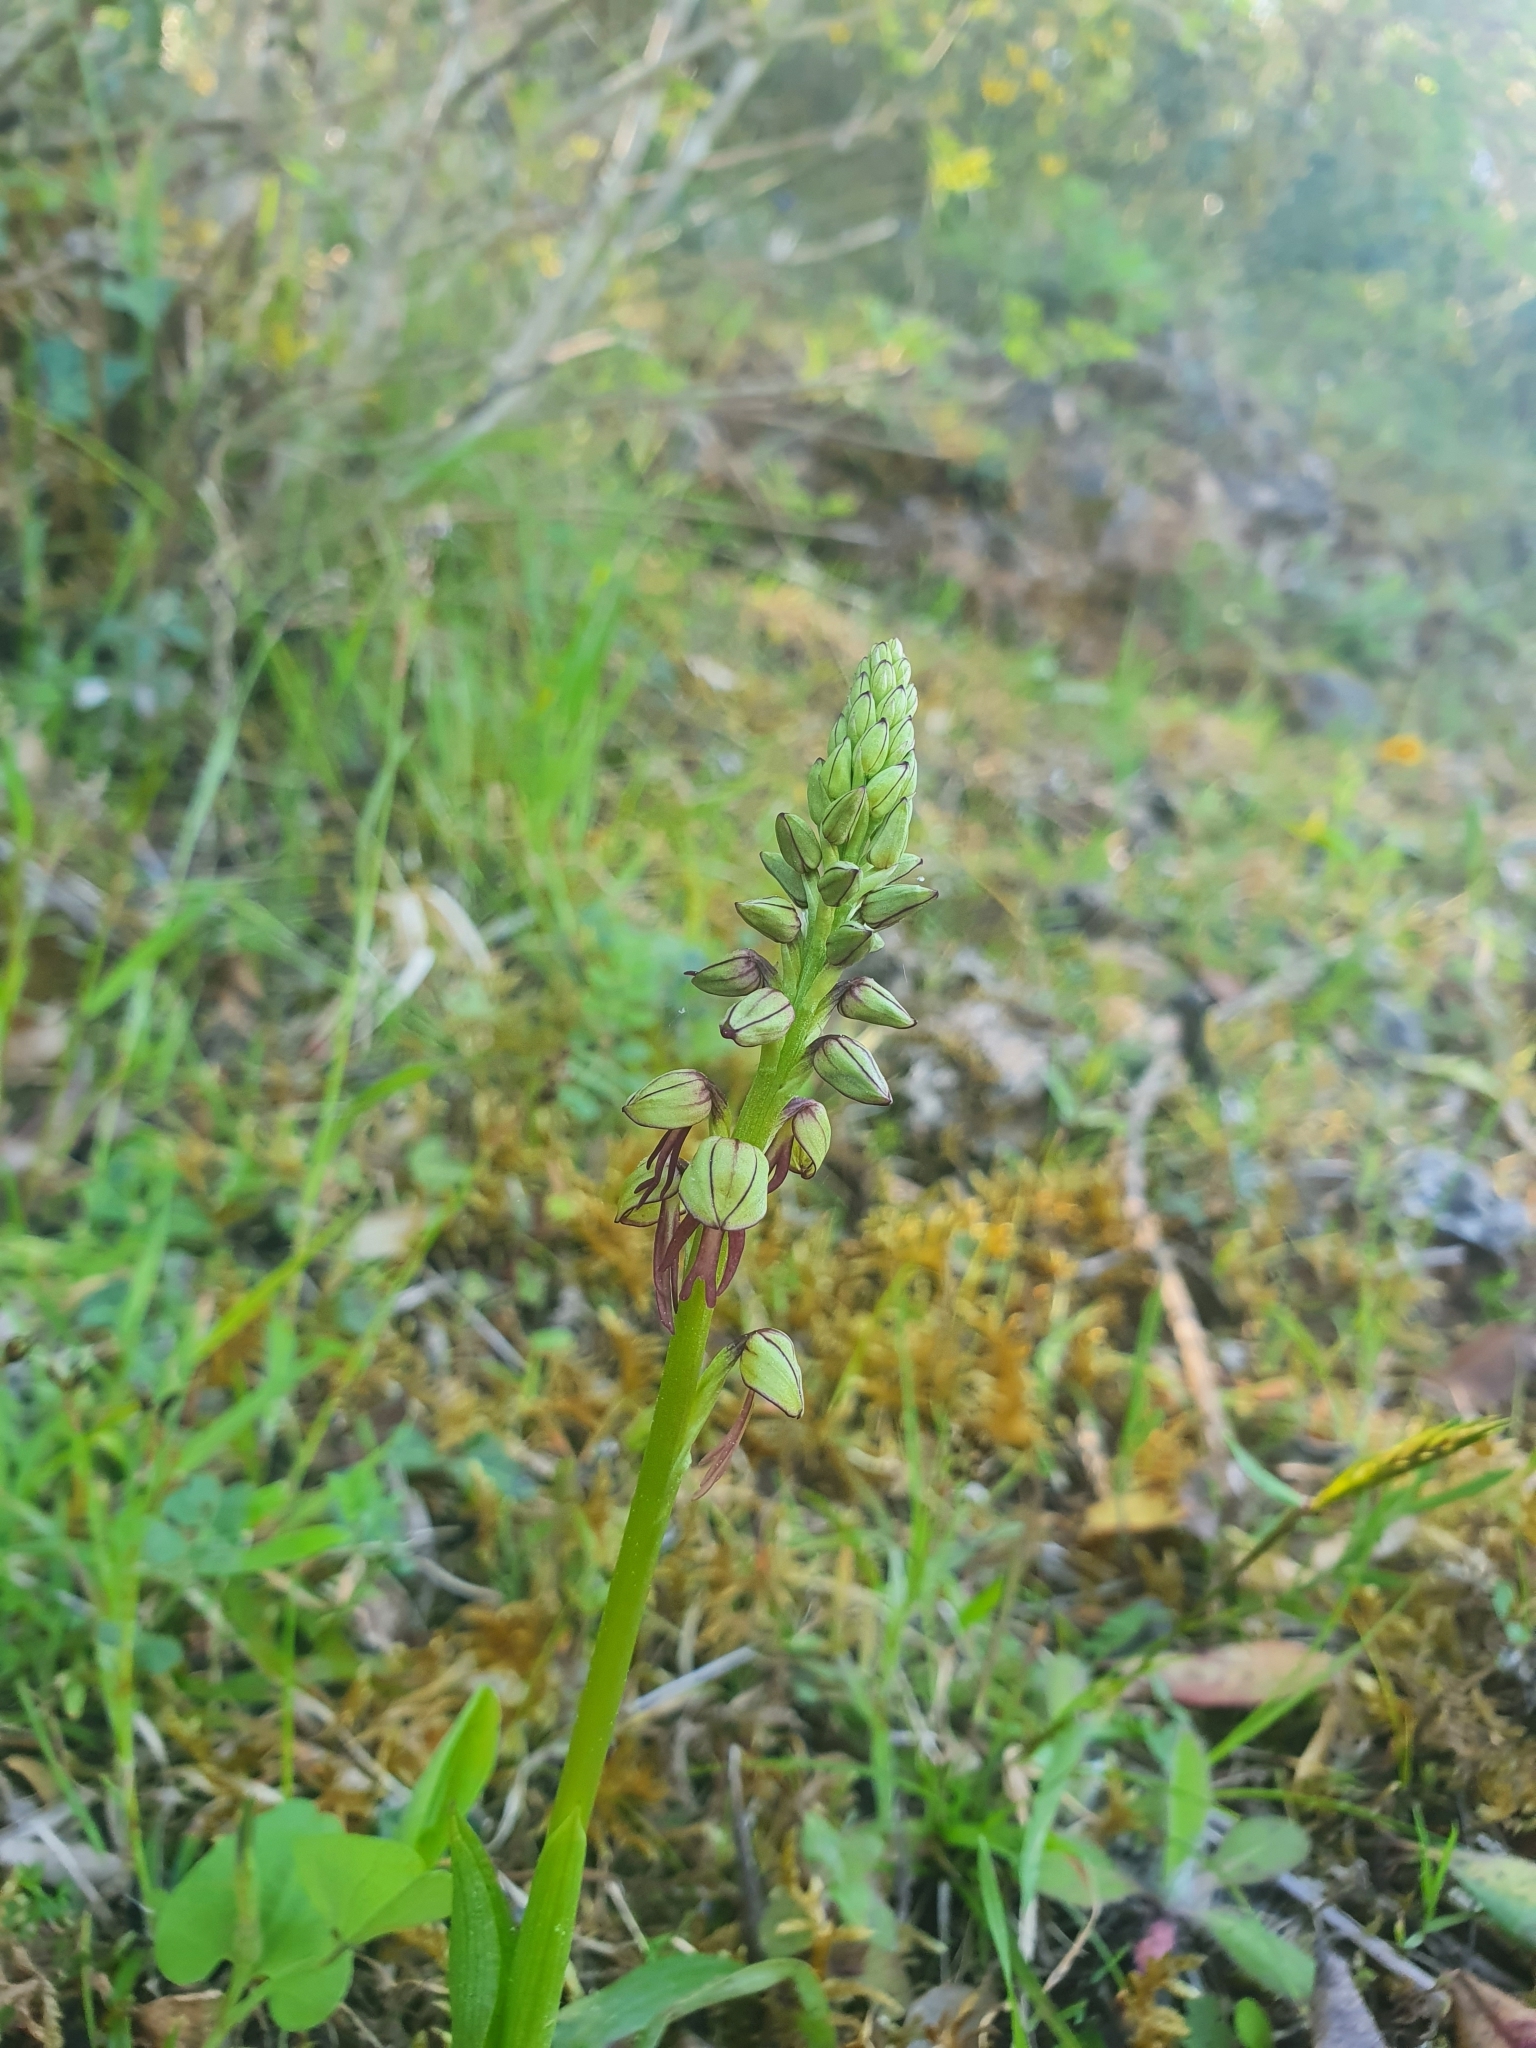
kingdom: Plantae
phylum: Tracheophyta
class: Liliopsida
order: Asparagales
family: Orchidaceae
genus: Orchis
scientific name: Orchis anthropophora
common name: Man orchid
